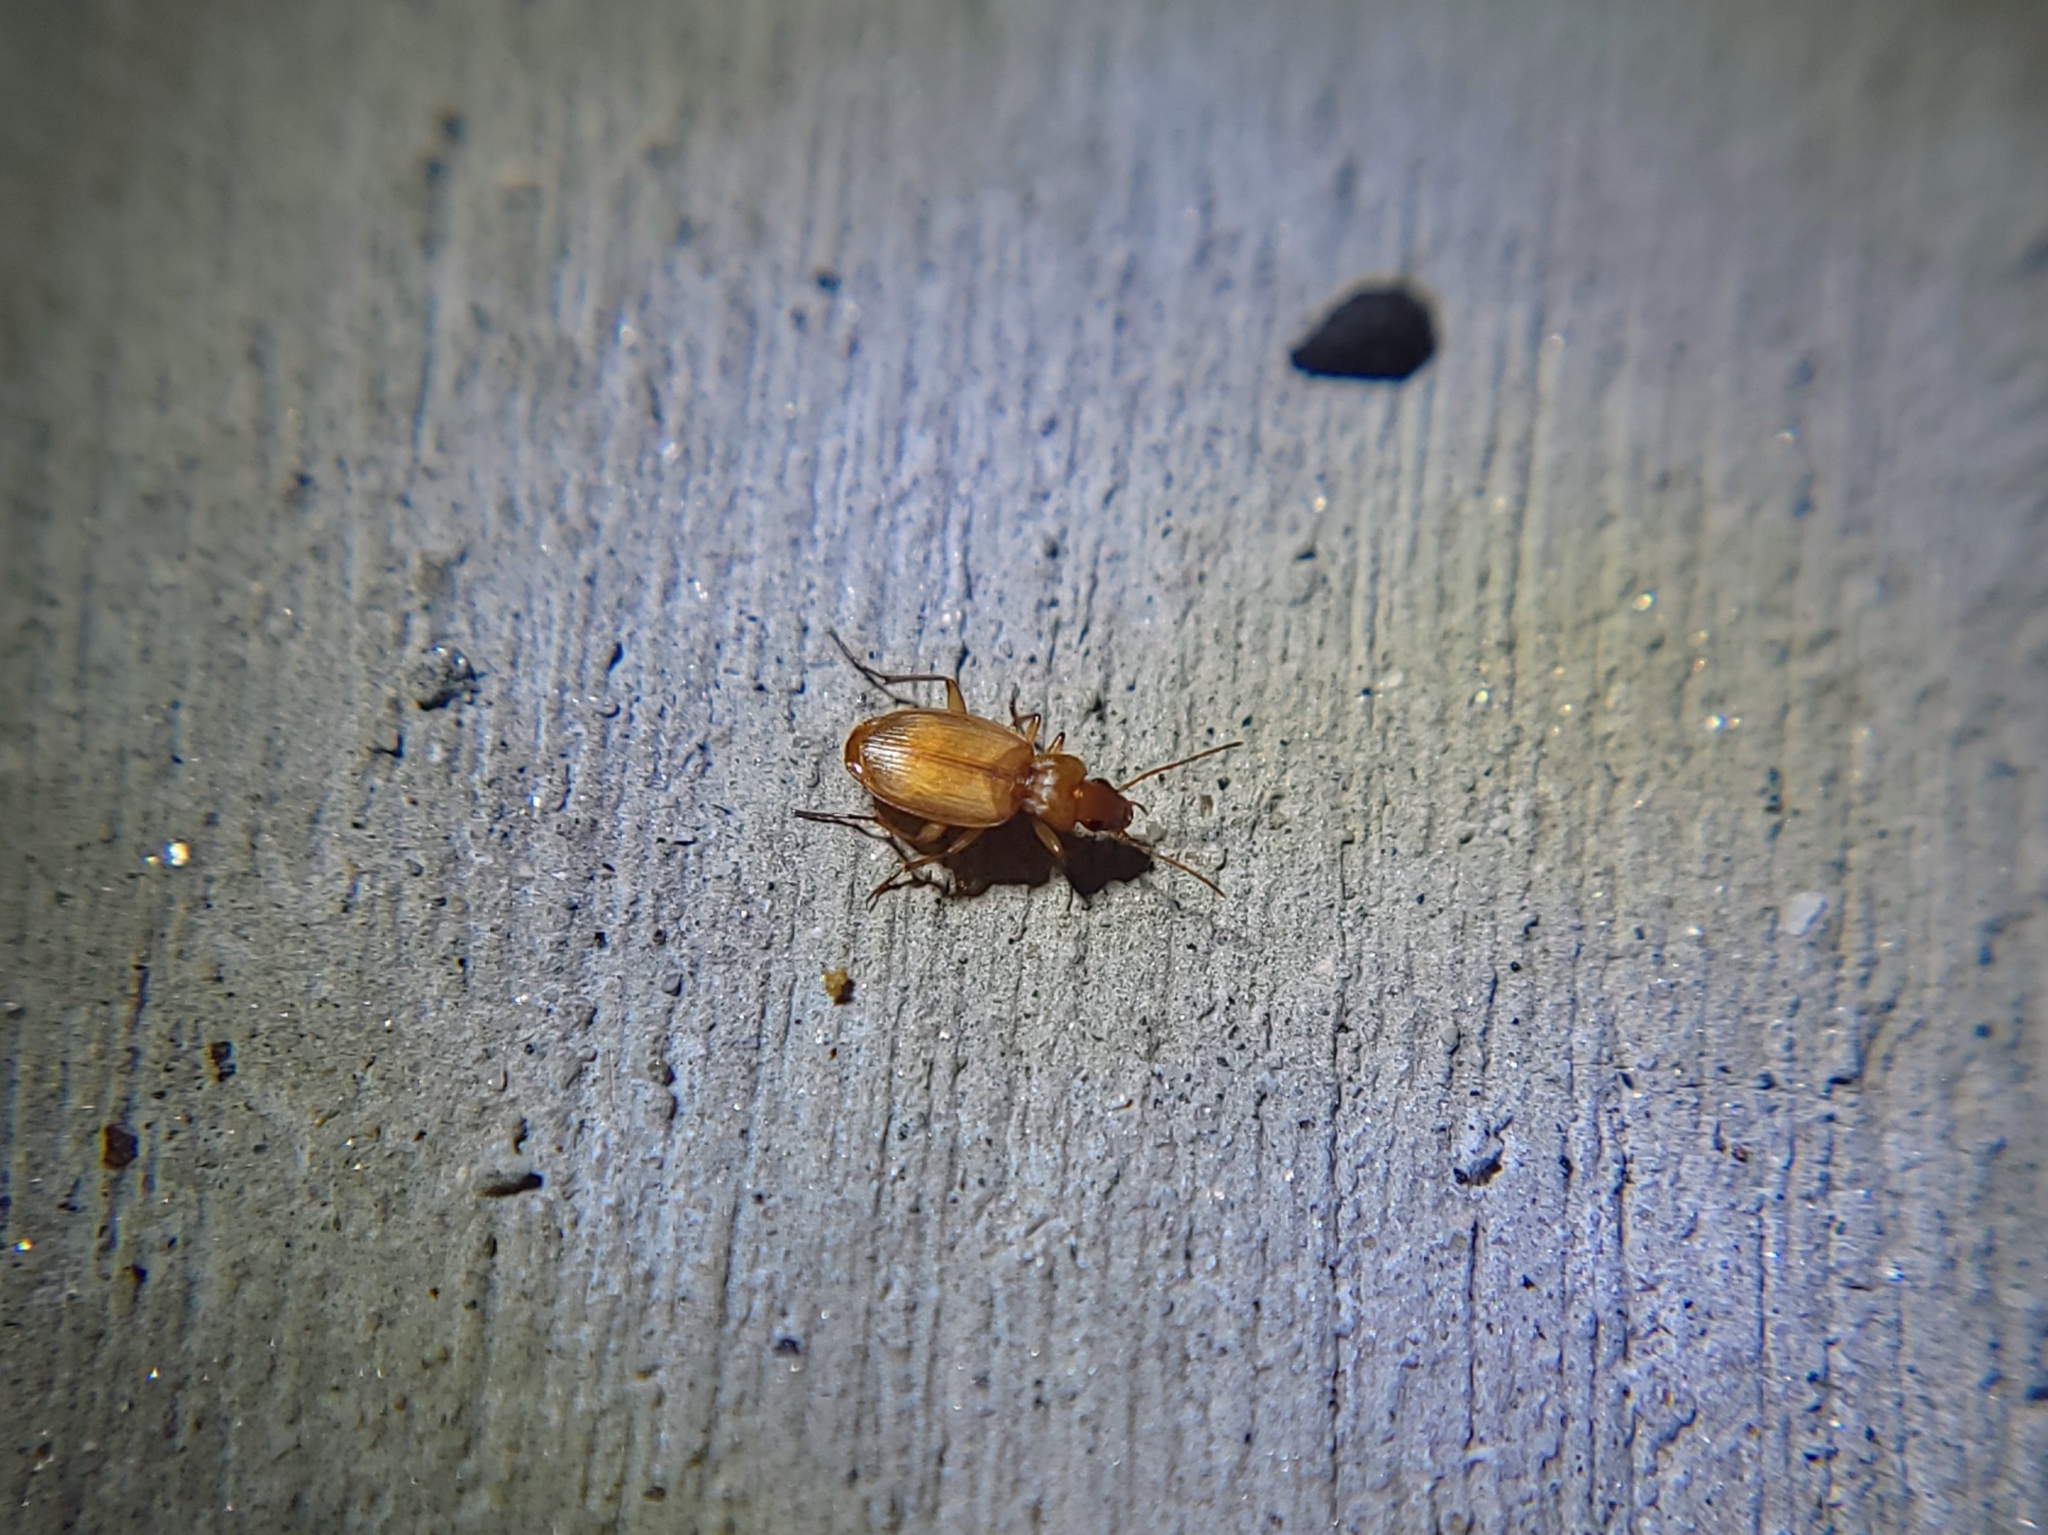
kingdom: Animalia
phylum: Arthropoda
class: Insecta
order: Coleoptera
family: Carabidae
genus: Tetragonoderus
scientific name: Tetragonoderus pallidus
